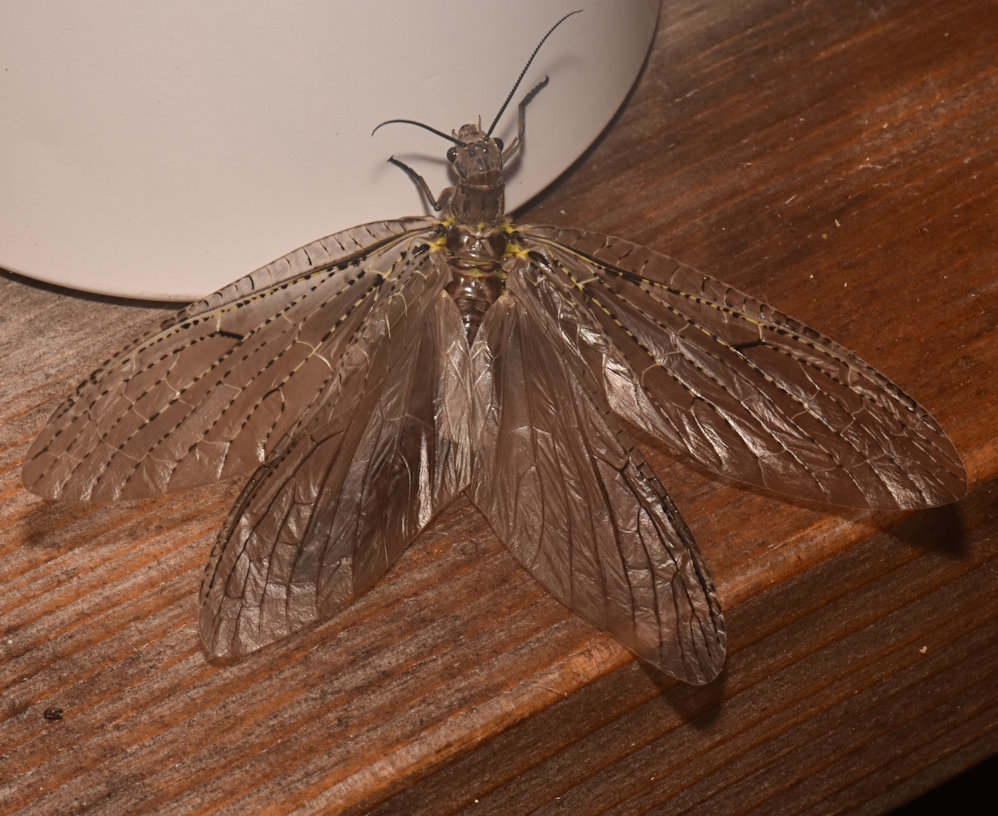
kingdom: Animalia
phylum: Arthropoda
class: Insecta
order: Megaloptera
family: Corydalidae
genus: Chauliodes
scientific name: Chauliodes rastricornis
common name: Spring fishfly
